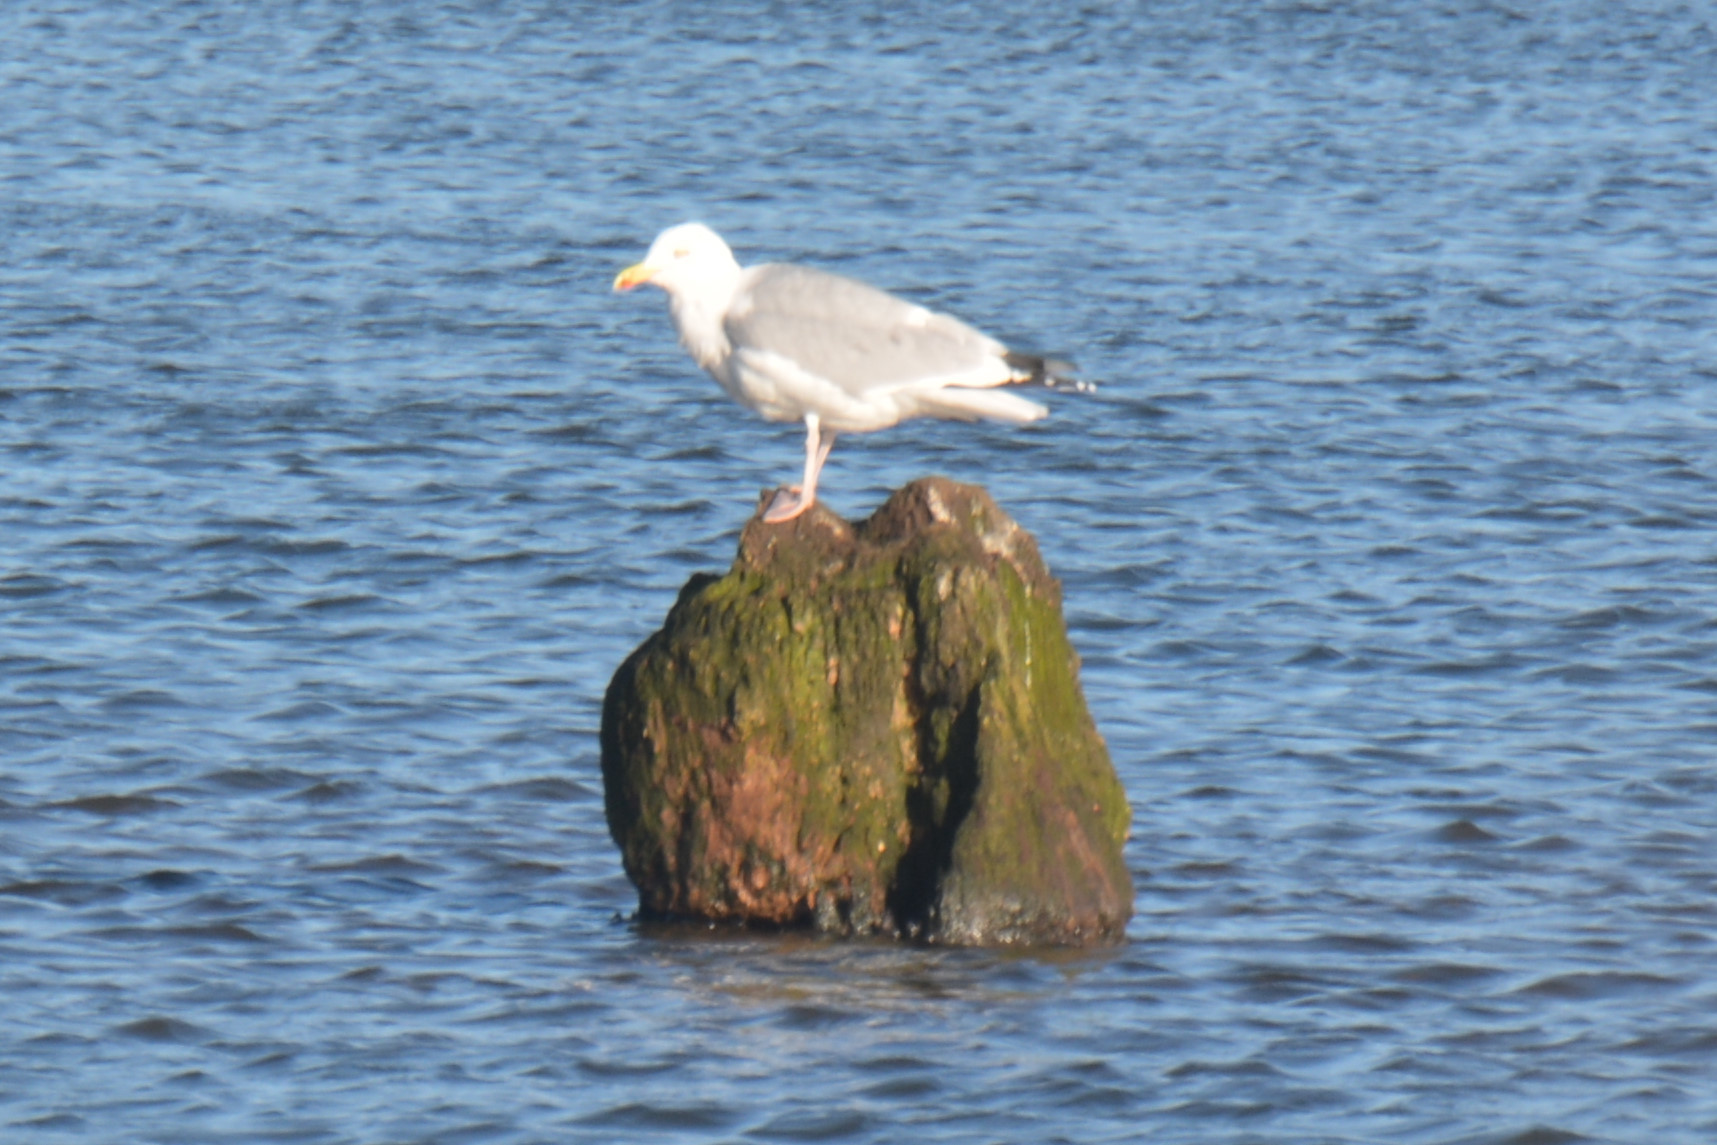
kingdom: Animalia
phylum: Chordata
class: Aves
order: Charadriiformes
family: Laridae
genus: Larus
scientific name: Larus argentatus
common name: Herring gull
